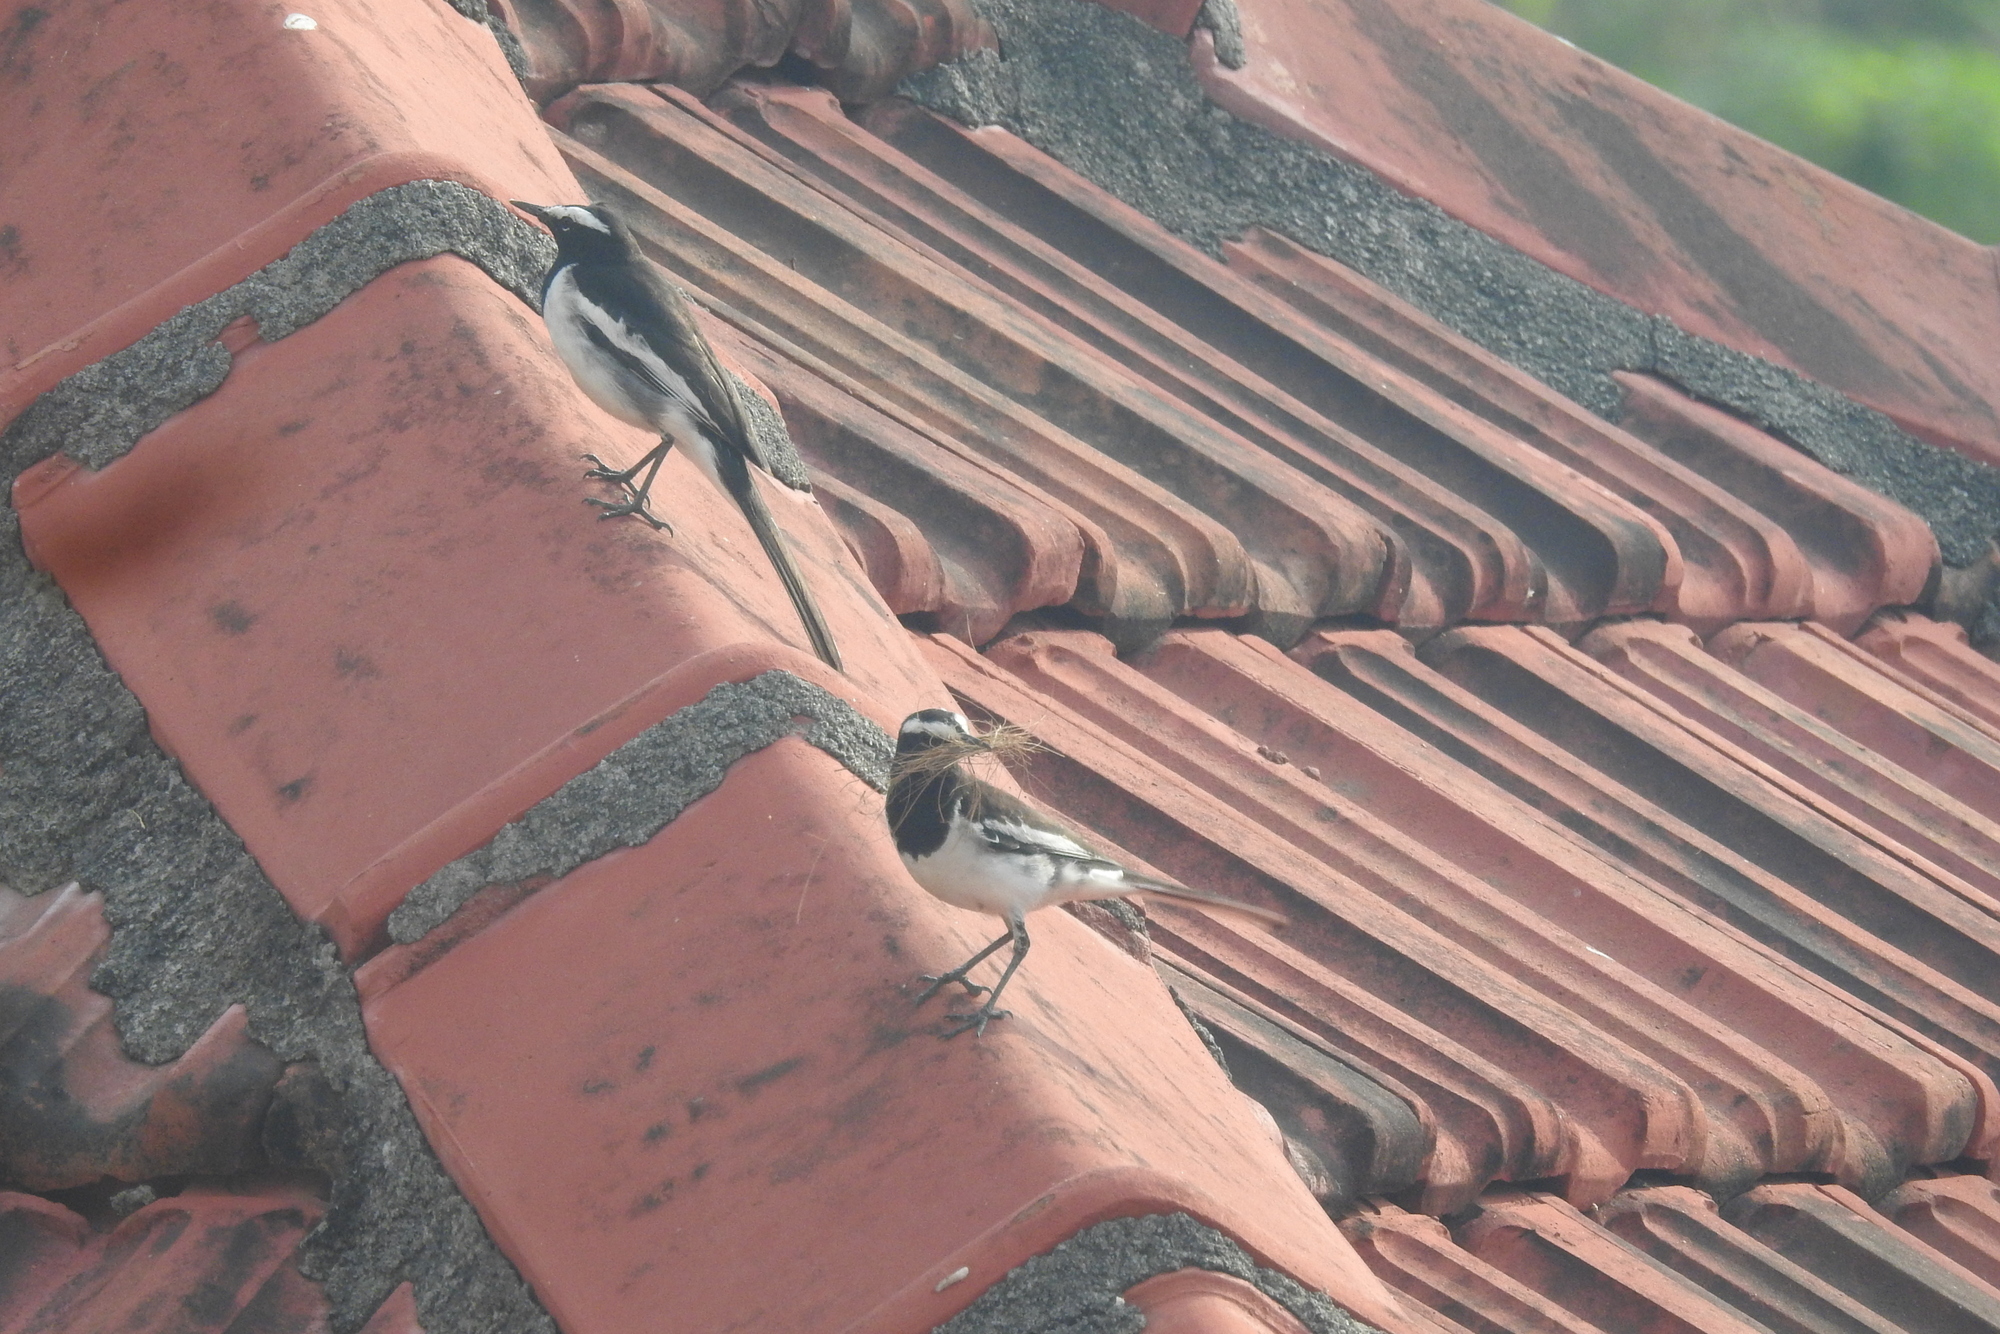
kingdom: Animalia
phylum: Chordata
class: Aves
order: Passeriformes
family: Motacillidae
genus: Motacilla
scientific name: Motacilla maderaspatensis
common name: White-browed wagtail
